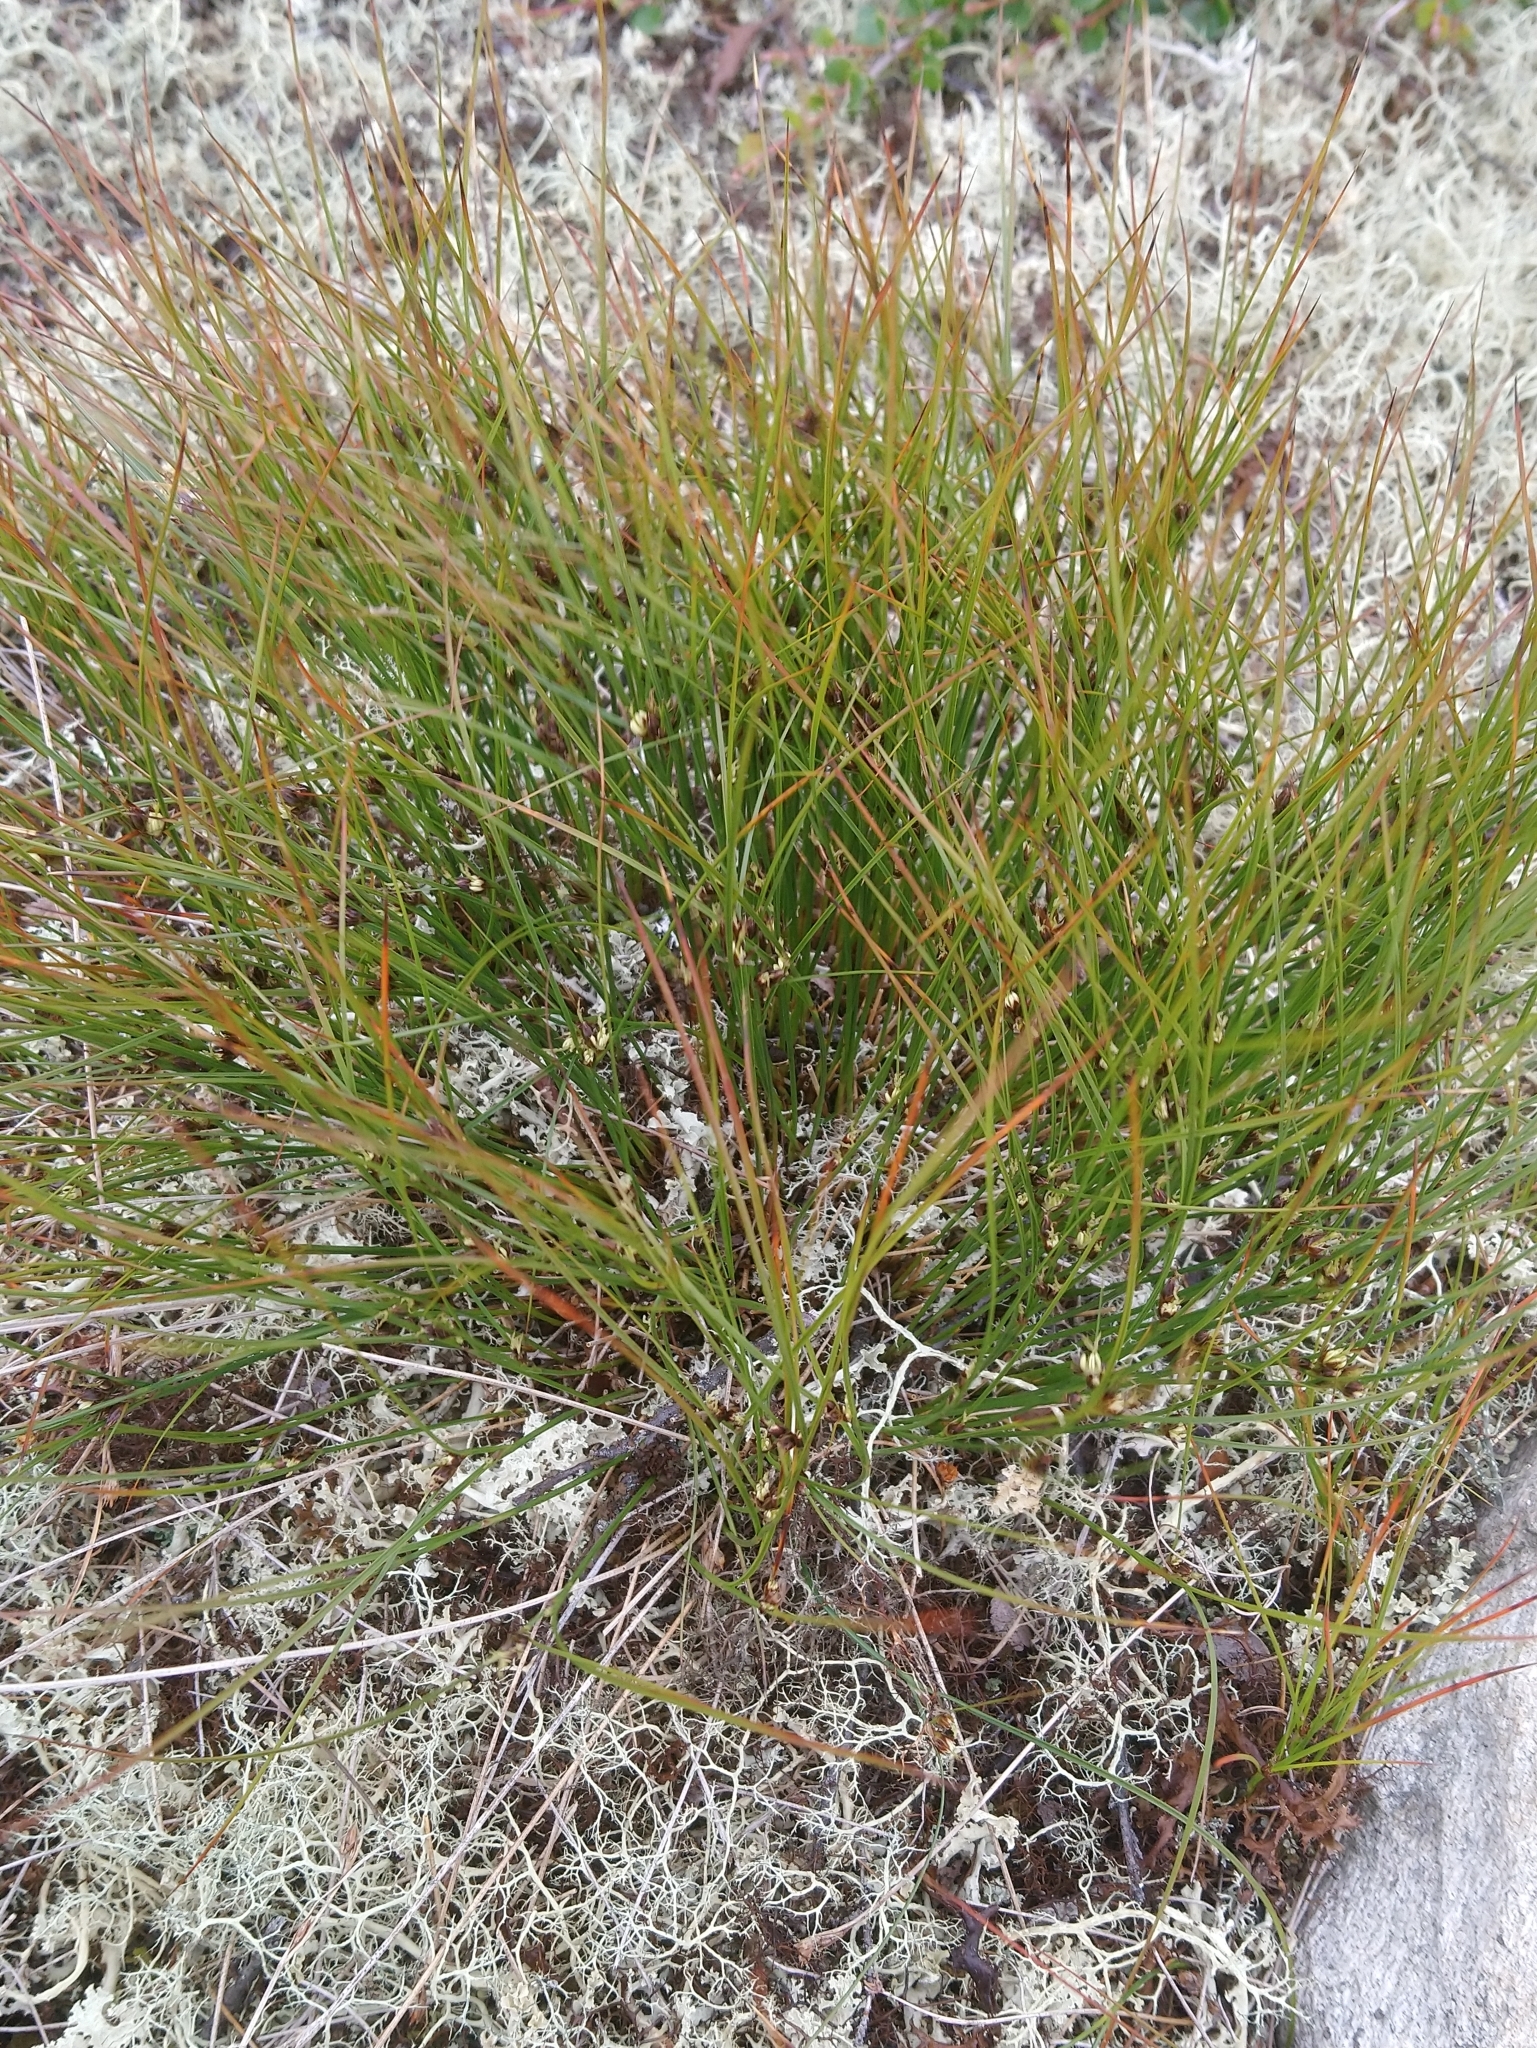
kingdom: Plantae
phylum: Tracheophyta
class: Liliopsida
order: Poales
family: Juncaceae
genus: Oreojuncus
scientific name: Oreojuncus trifidus
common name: Highland rush
